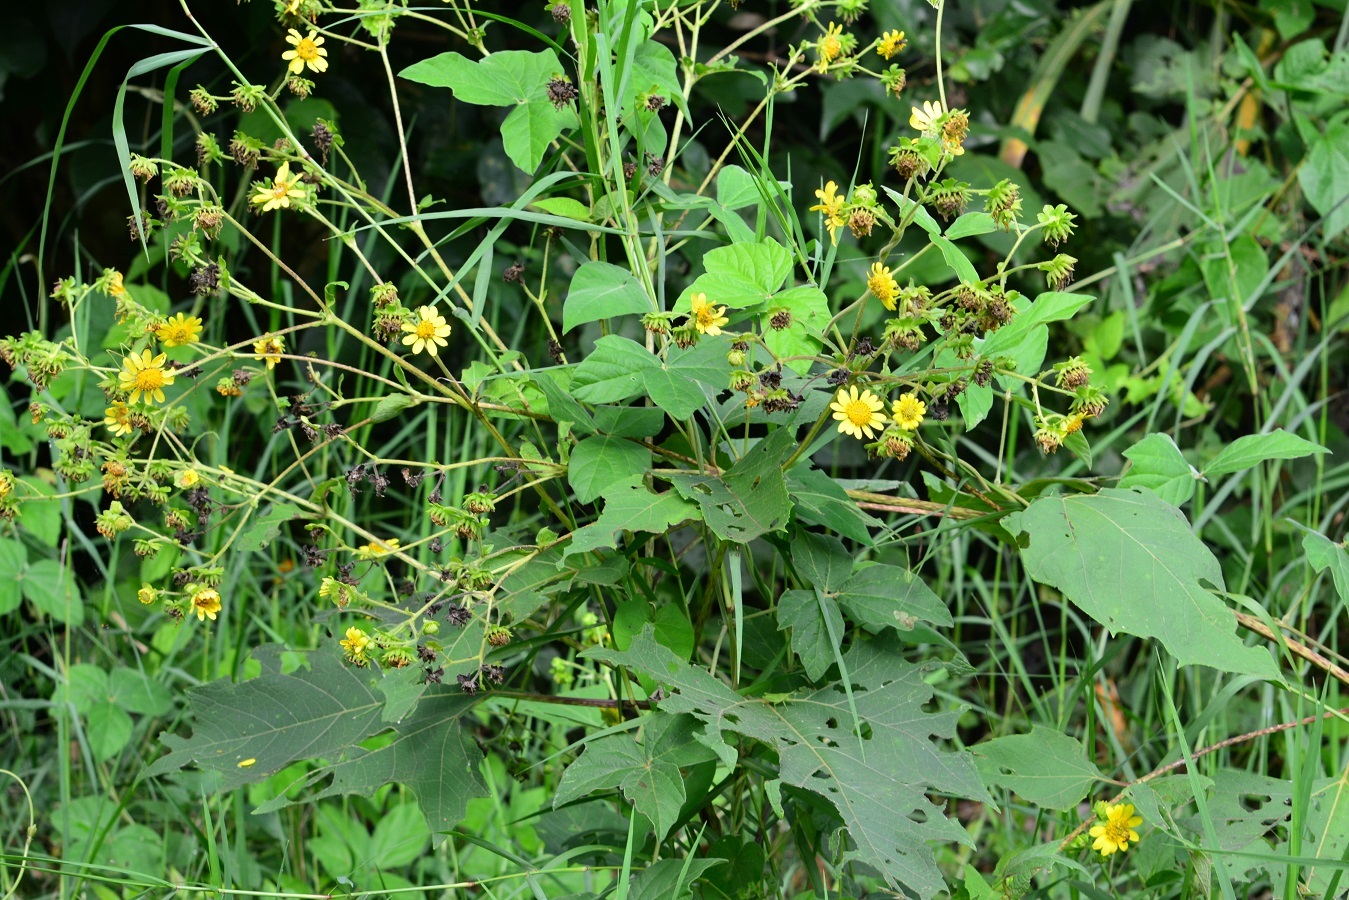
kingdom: Plantae
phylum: Tracheophyta
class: Magnoliopsida
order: Asterales
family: Asteraceae
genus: Smallanthus
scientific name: Smallanthus maculatus
